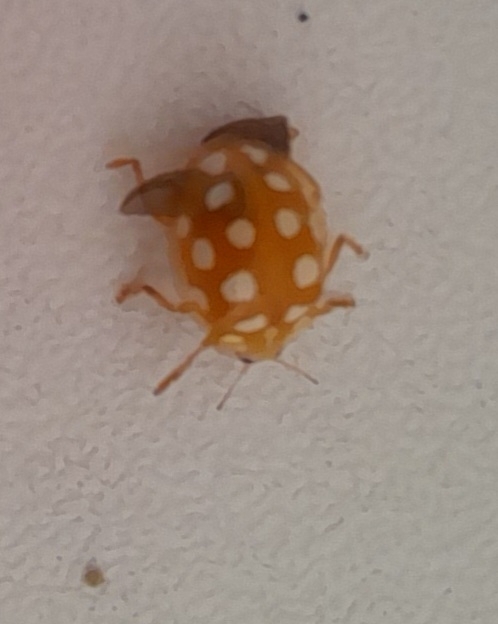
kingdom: Animalia
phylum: Arthropoda
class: Insecta
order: Coleoptera
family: Coccinellidae
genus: Halyzia
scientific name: Halyzia sedecimguttata
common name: Orange ladybird
